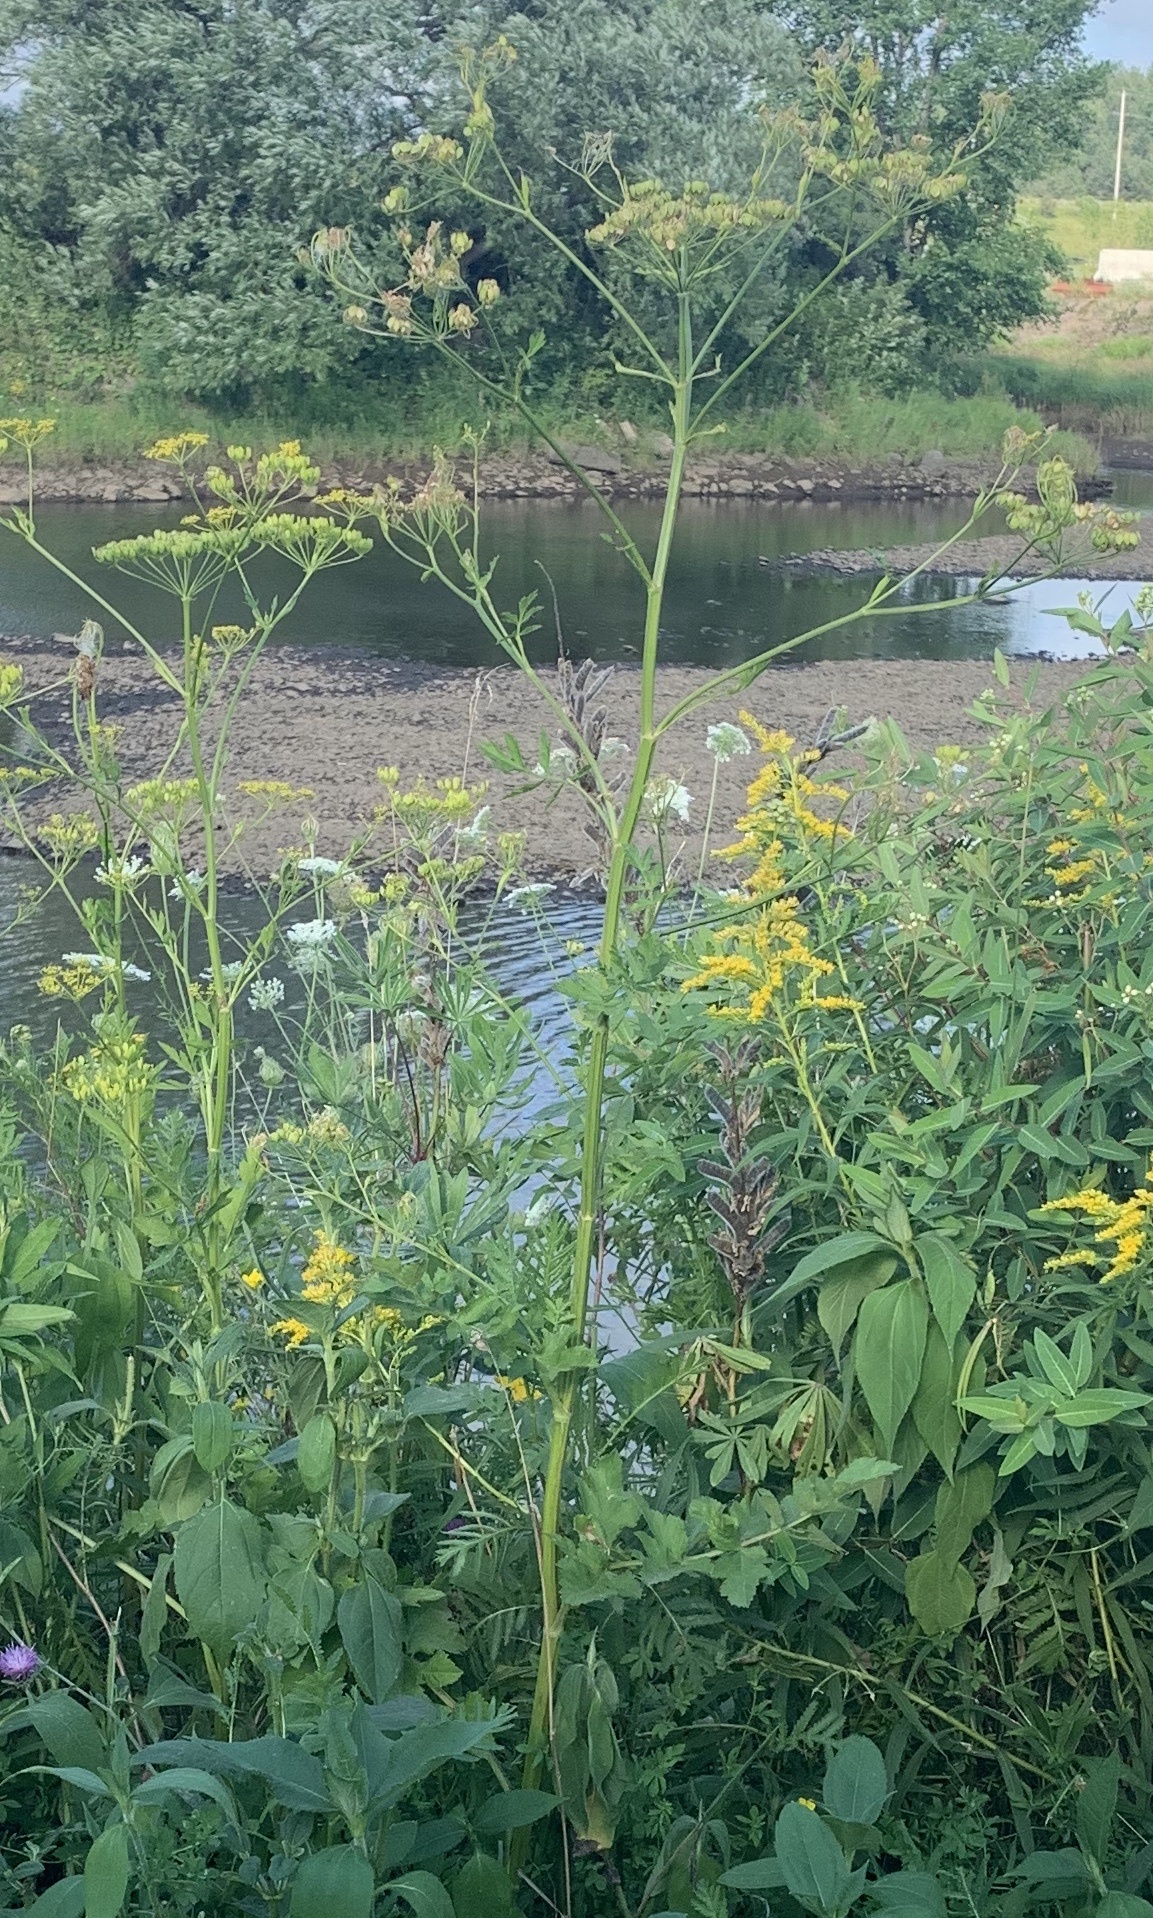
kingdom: Plantae
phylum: Tracheophyta
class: Magnoliopsida
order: Apiales
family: Apiaceae
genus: Pastinaca
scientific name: Pastinaca sativa
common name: Wild parsnip
